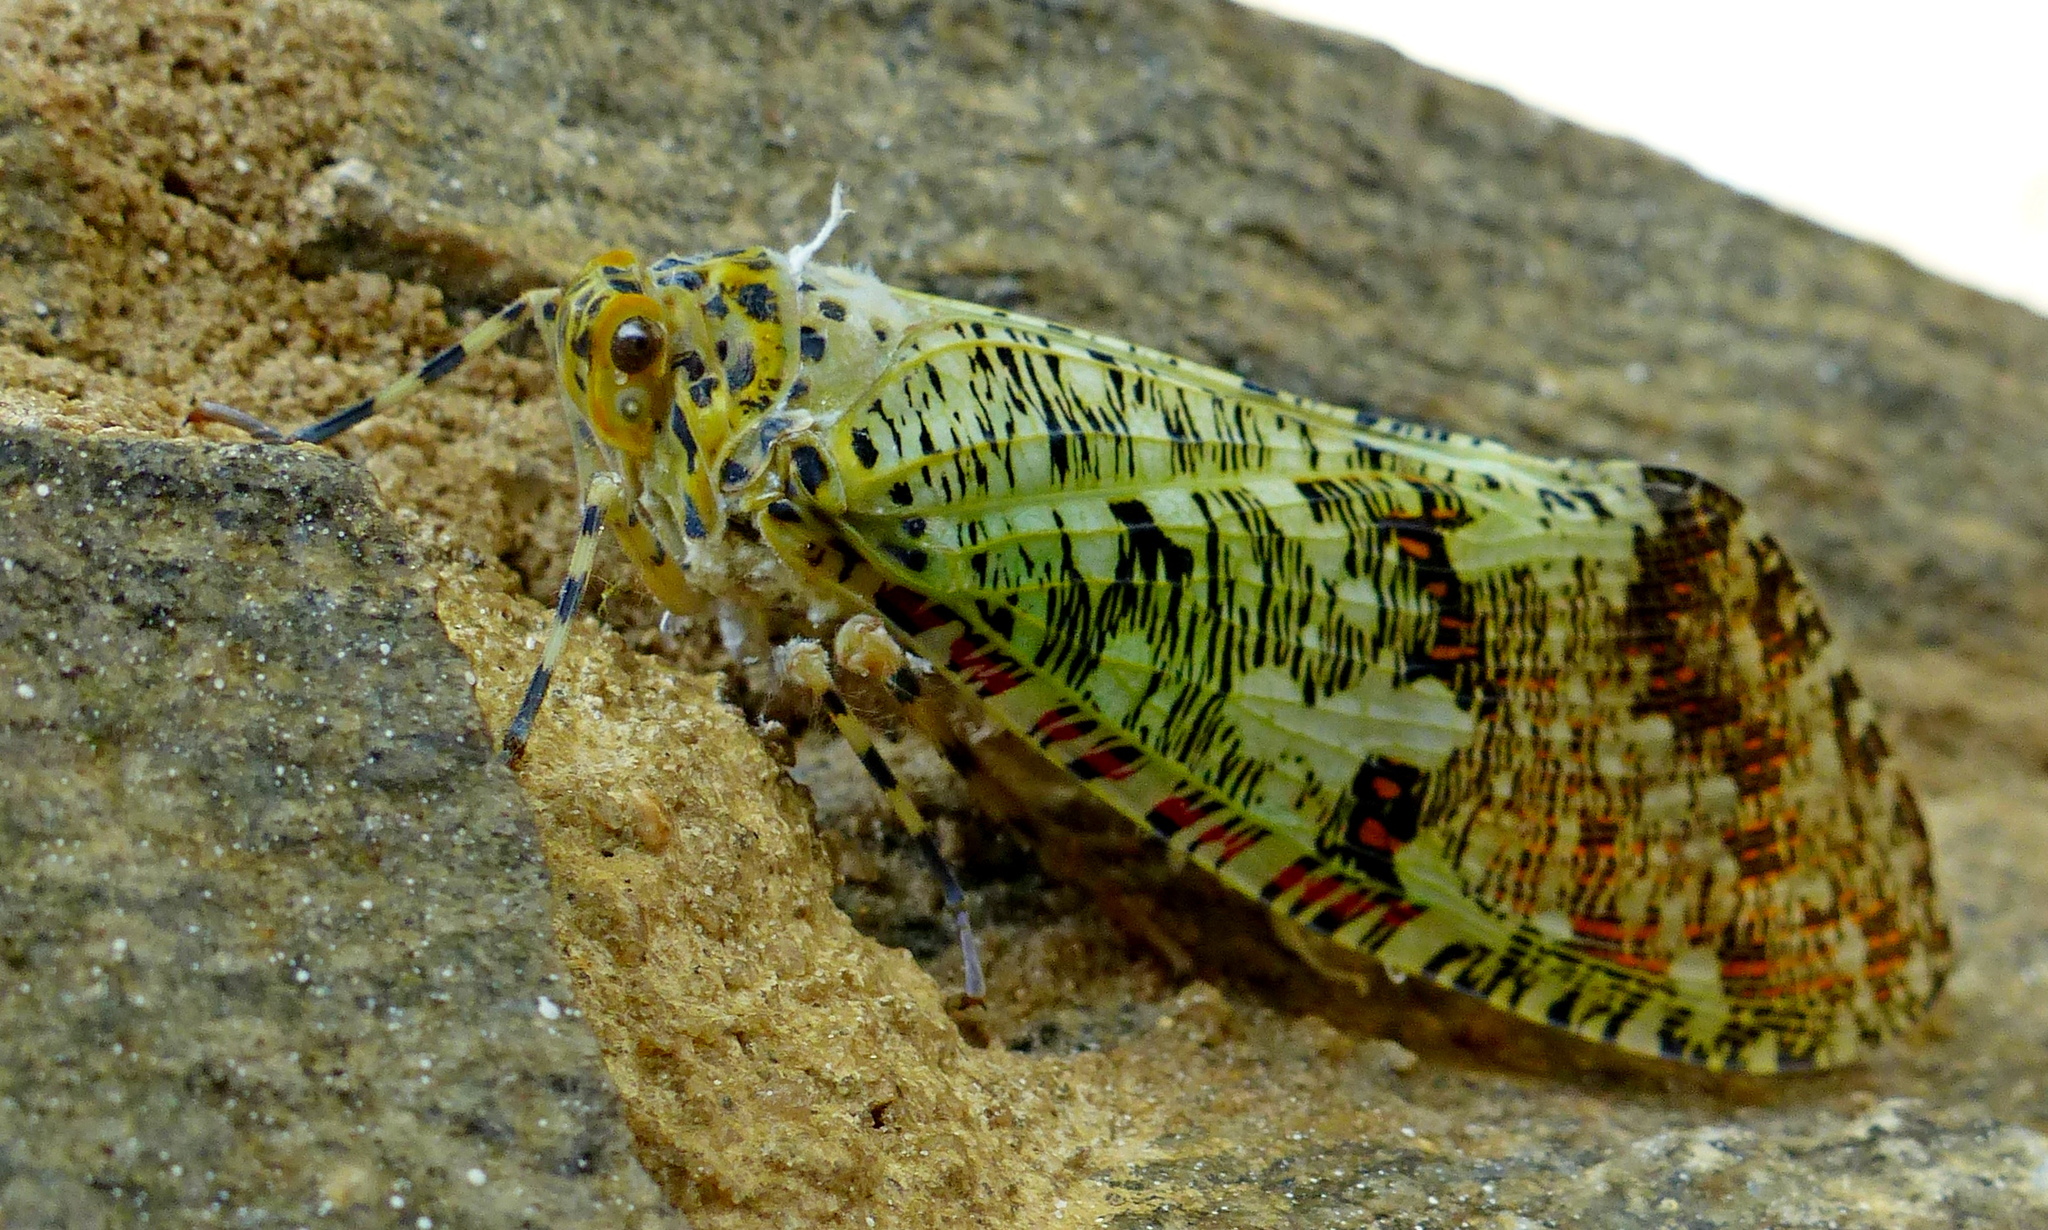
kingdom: Animalia
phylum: Arthropoda
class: Insecta
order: Hemiptera
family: Fulgoridae
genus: Phenax
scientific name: Phenax variegata
